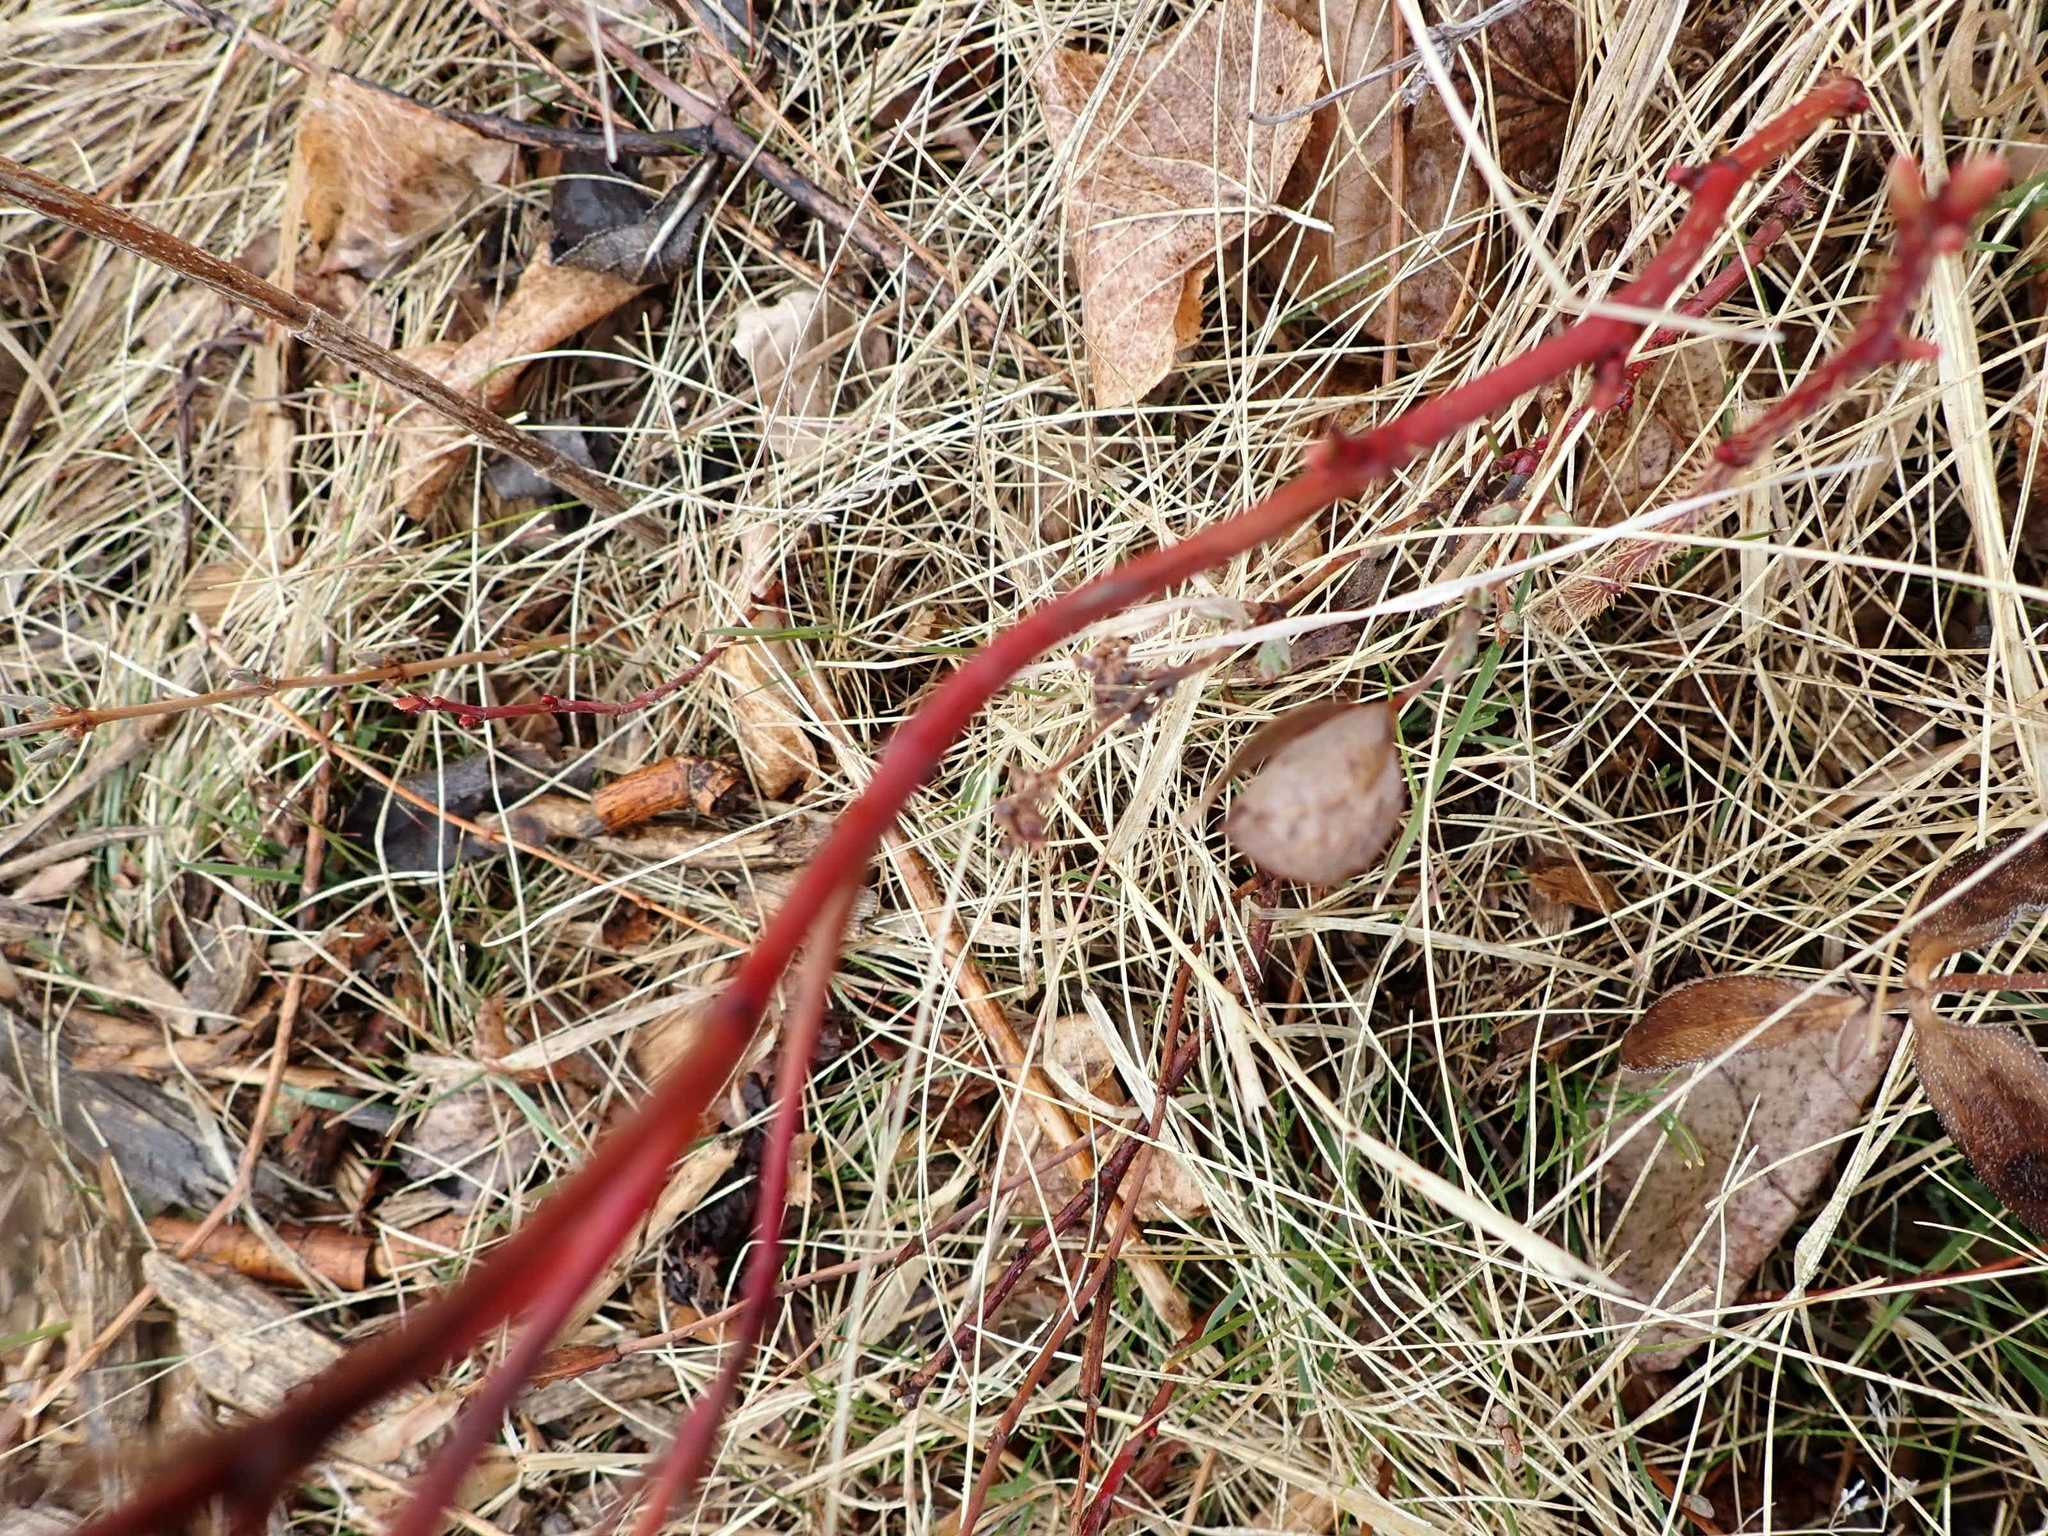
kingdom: Plantae
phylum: Tracheophyta
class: Magnoliopsida
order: Rosales
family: Rosaceae
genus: Rosa
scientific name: Rosa arkansana
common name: Prairie rose
